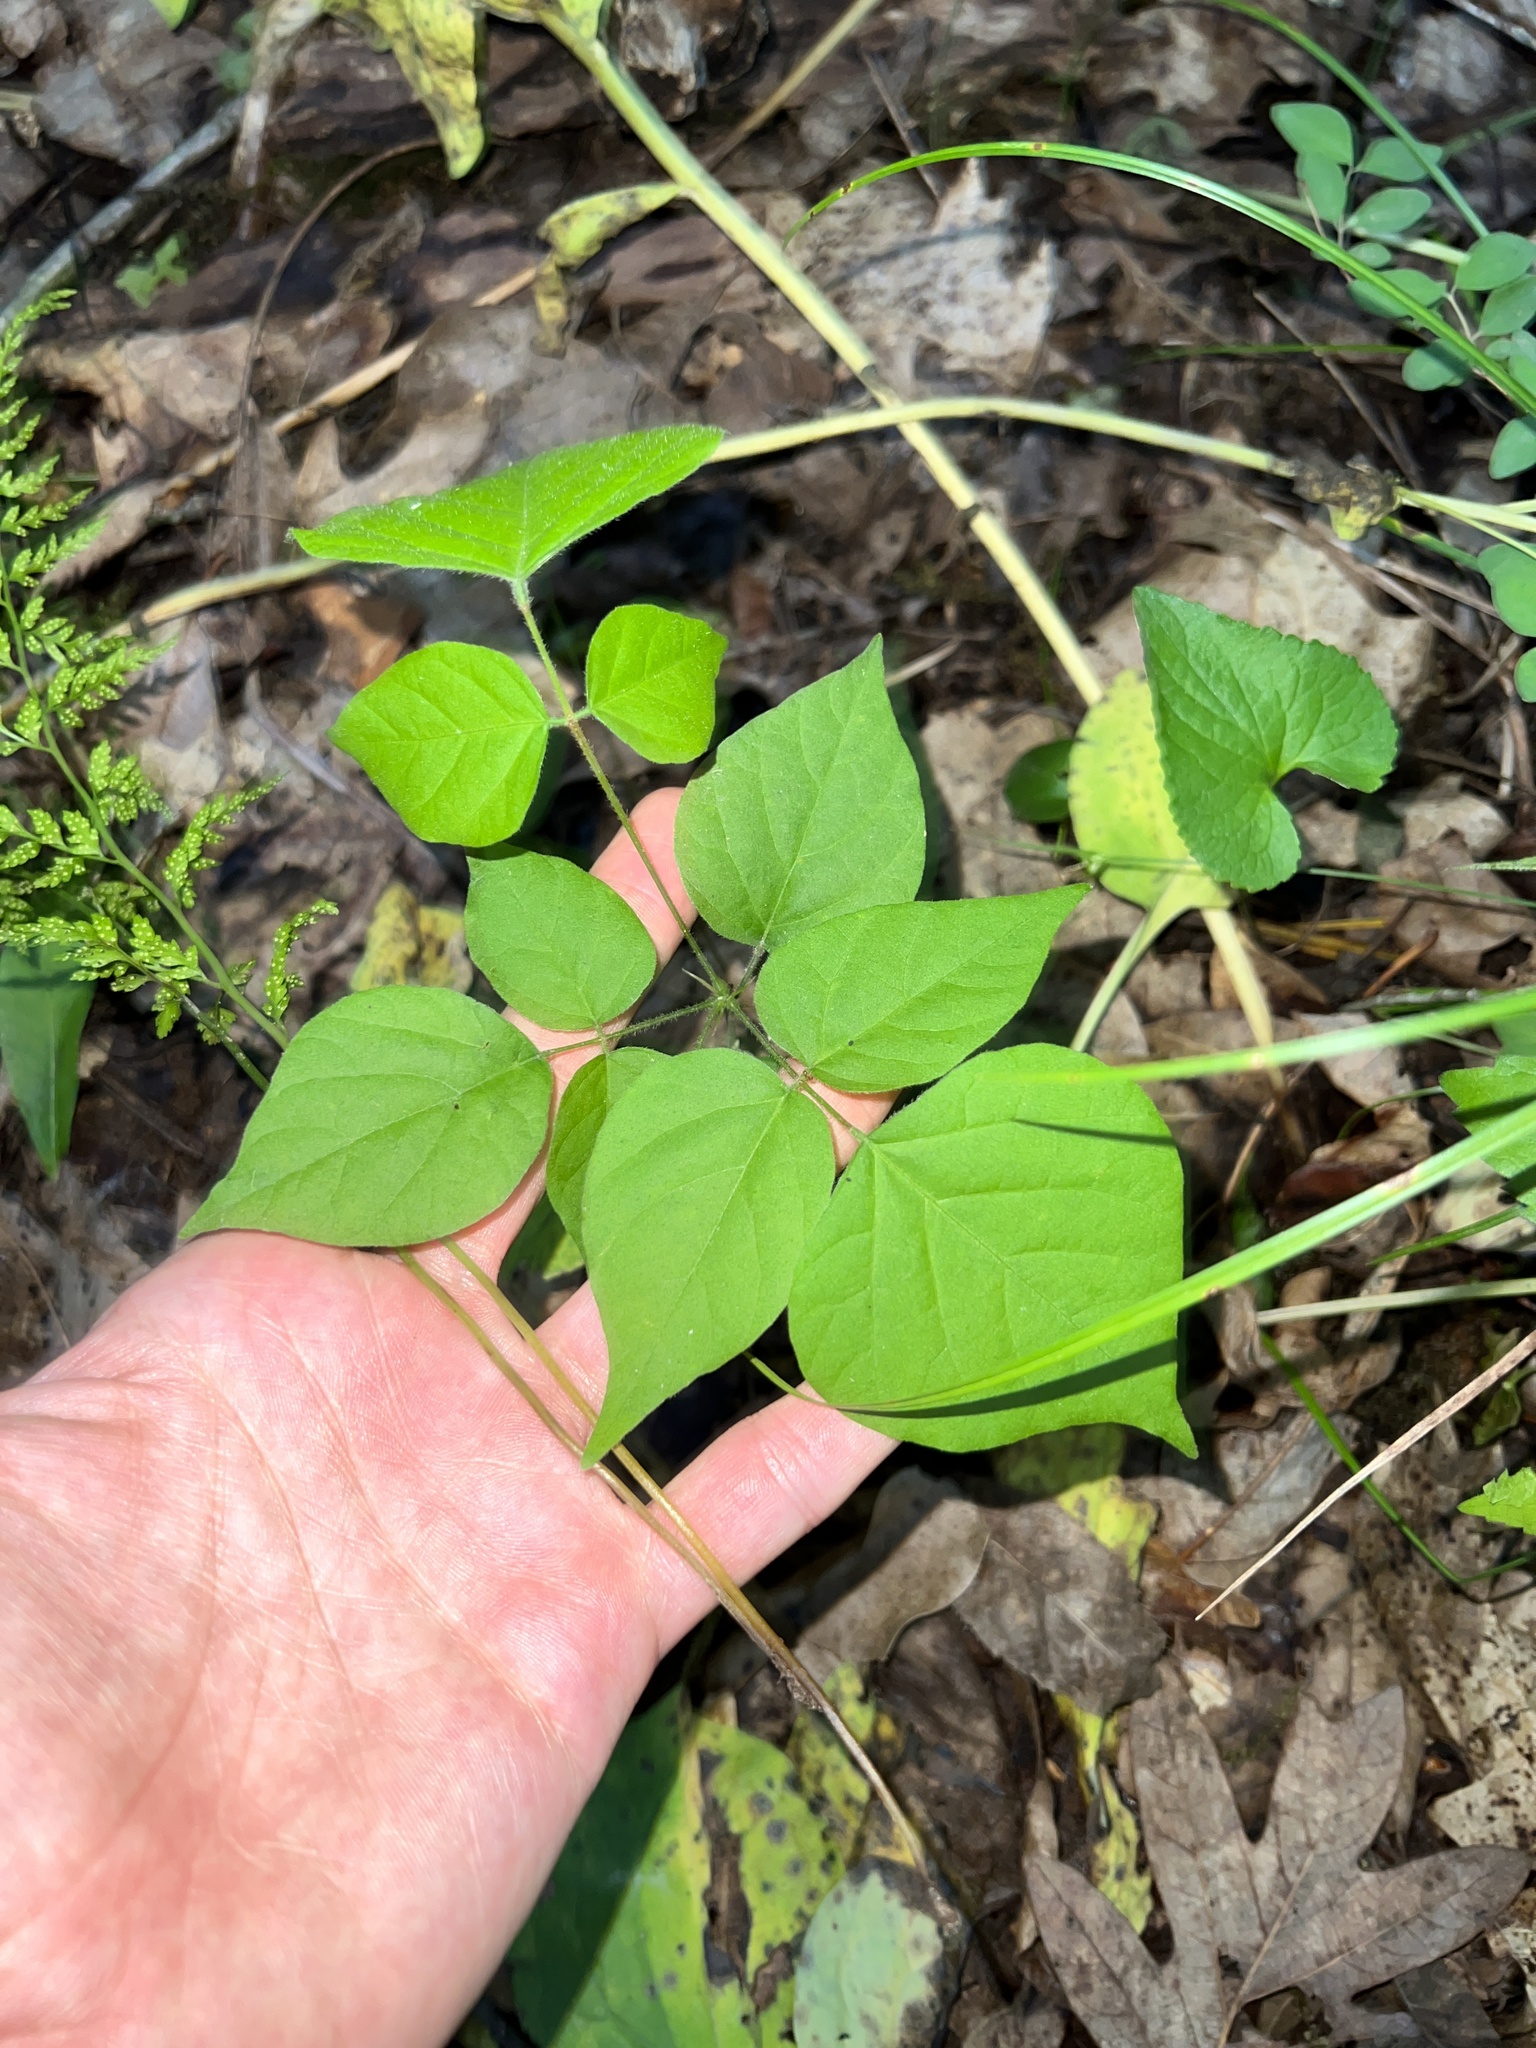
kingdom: Plantae
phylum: Tracheophyta
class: Magnoliopsida
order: Fabales
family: Fabaceae
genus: Hylodesmum
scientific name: Hylodesmum glutinosum
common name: Clustered-leaved tick-trefoil
